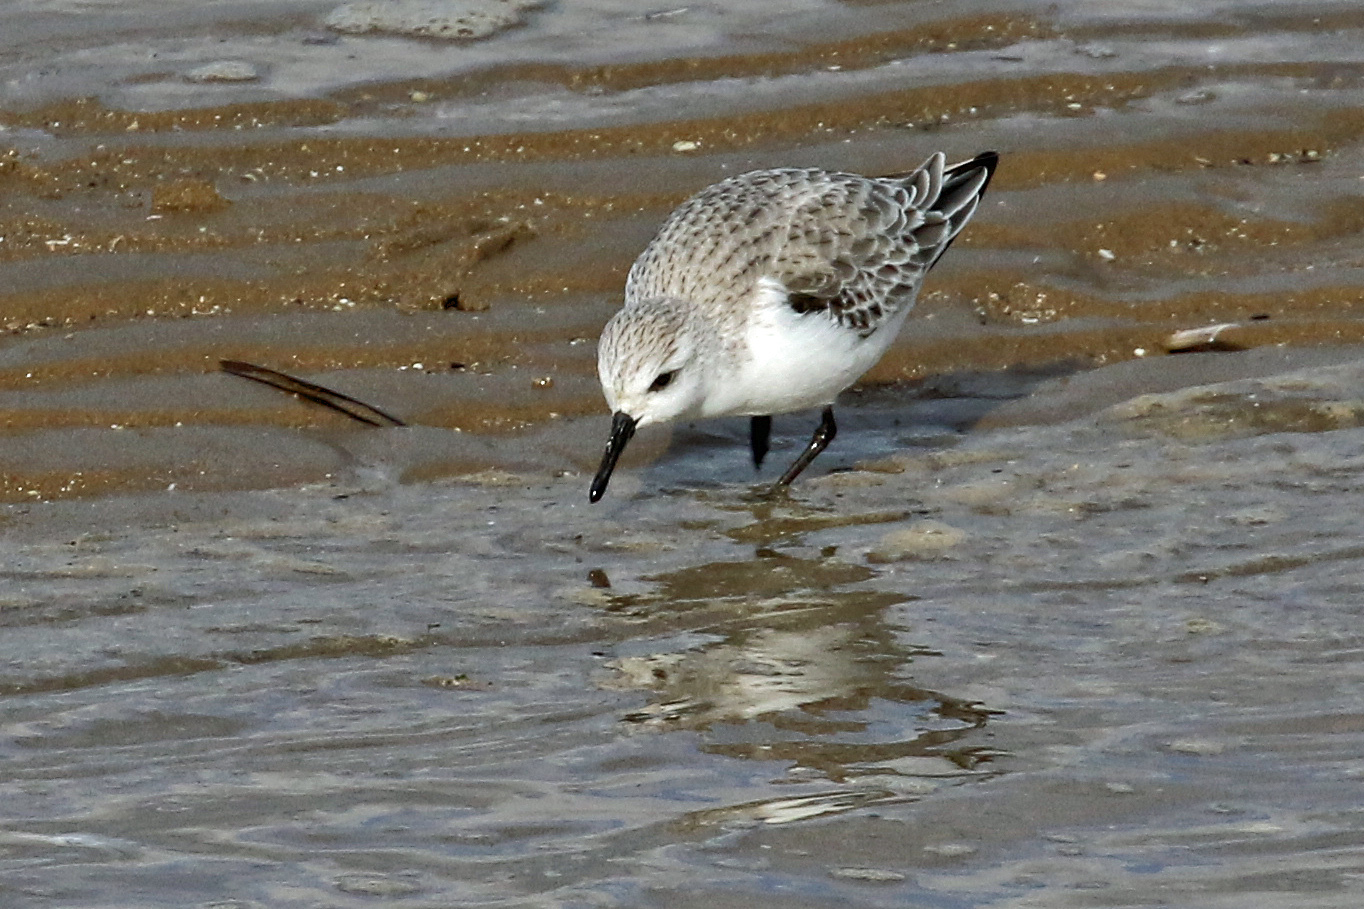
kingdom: Animalia
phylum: Chordata
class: Aves
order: Charadriiformes
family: Scolopacidae
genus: Calidris
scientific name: Calidris alba
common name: Sanderling
